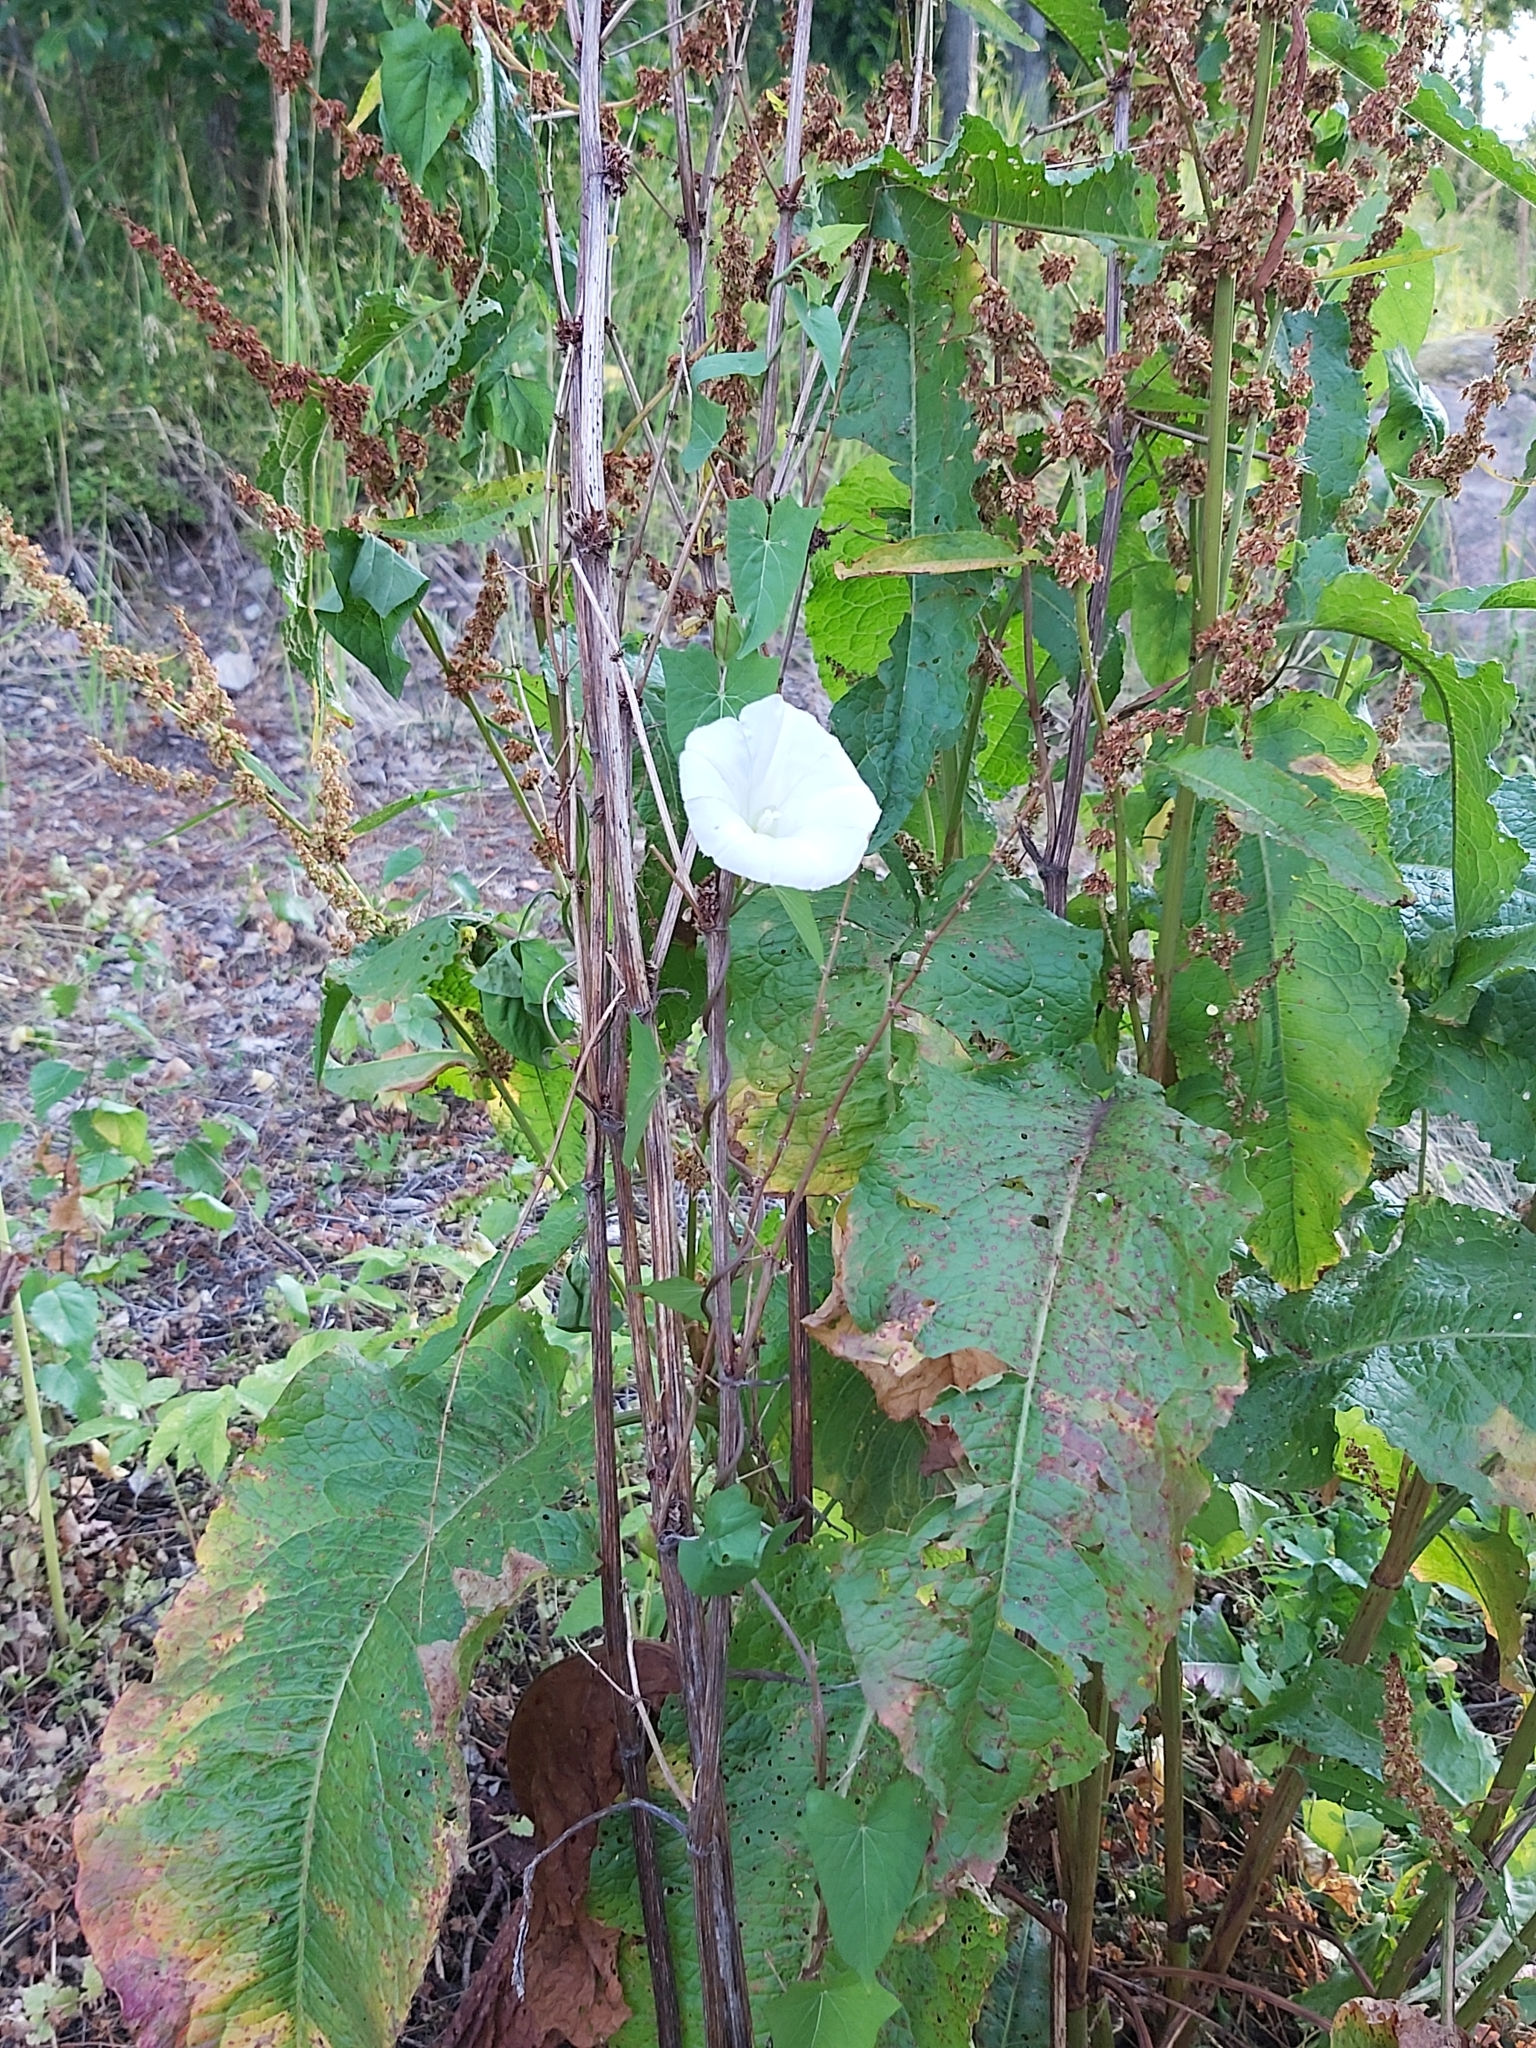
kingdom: Plantae
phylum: Tracheophyta
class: Magnoliopsida
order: Solanales
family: Convolvulaceae
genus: Calystegia
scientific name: Calystegia sepium
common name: Hedge bindweed
